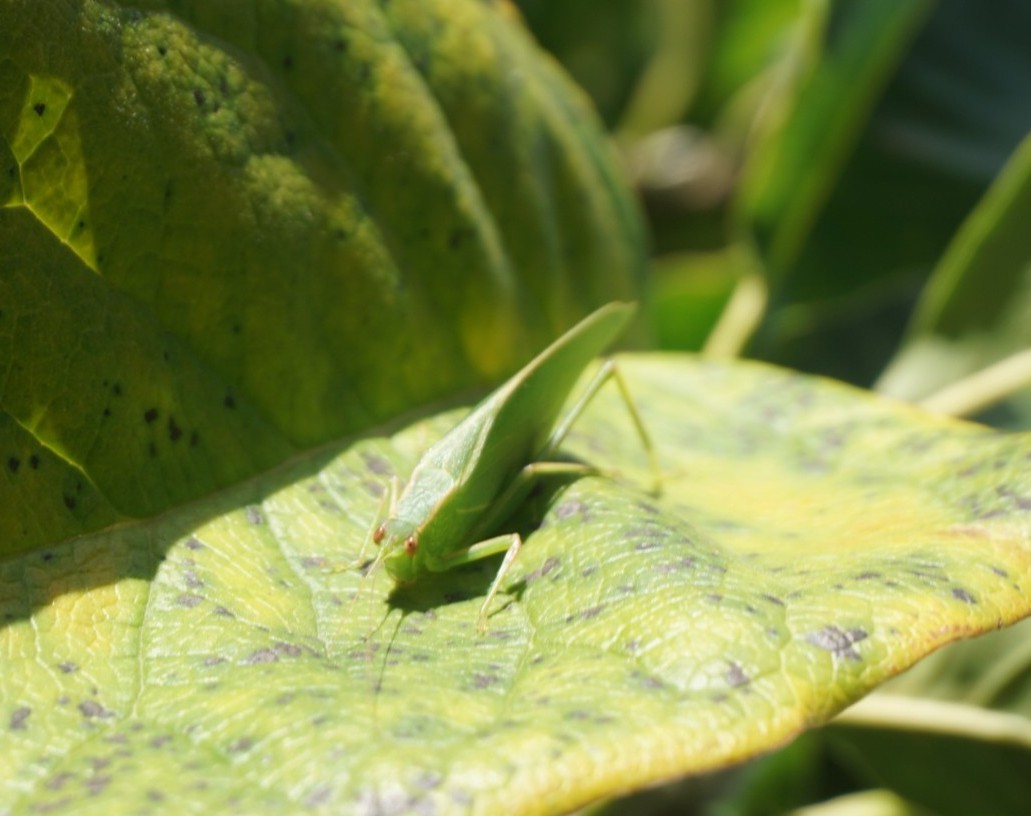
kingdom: Animalia
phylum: Arthropoda
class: Insecta
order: Orthoptera
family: Tettigoniidae
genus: Caedicia
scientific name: Caedicia simplex
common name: Common garden katydid
